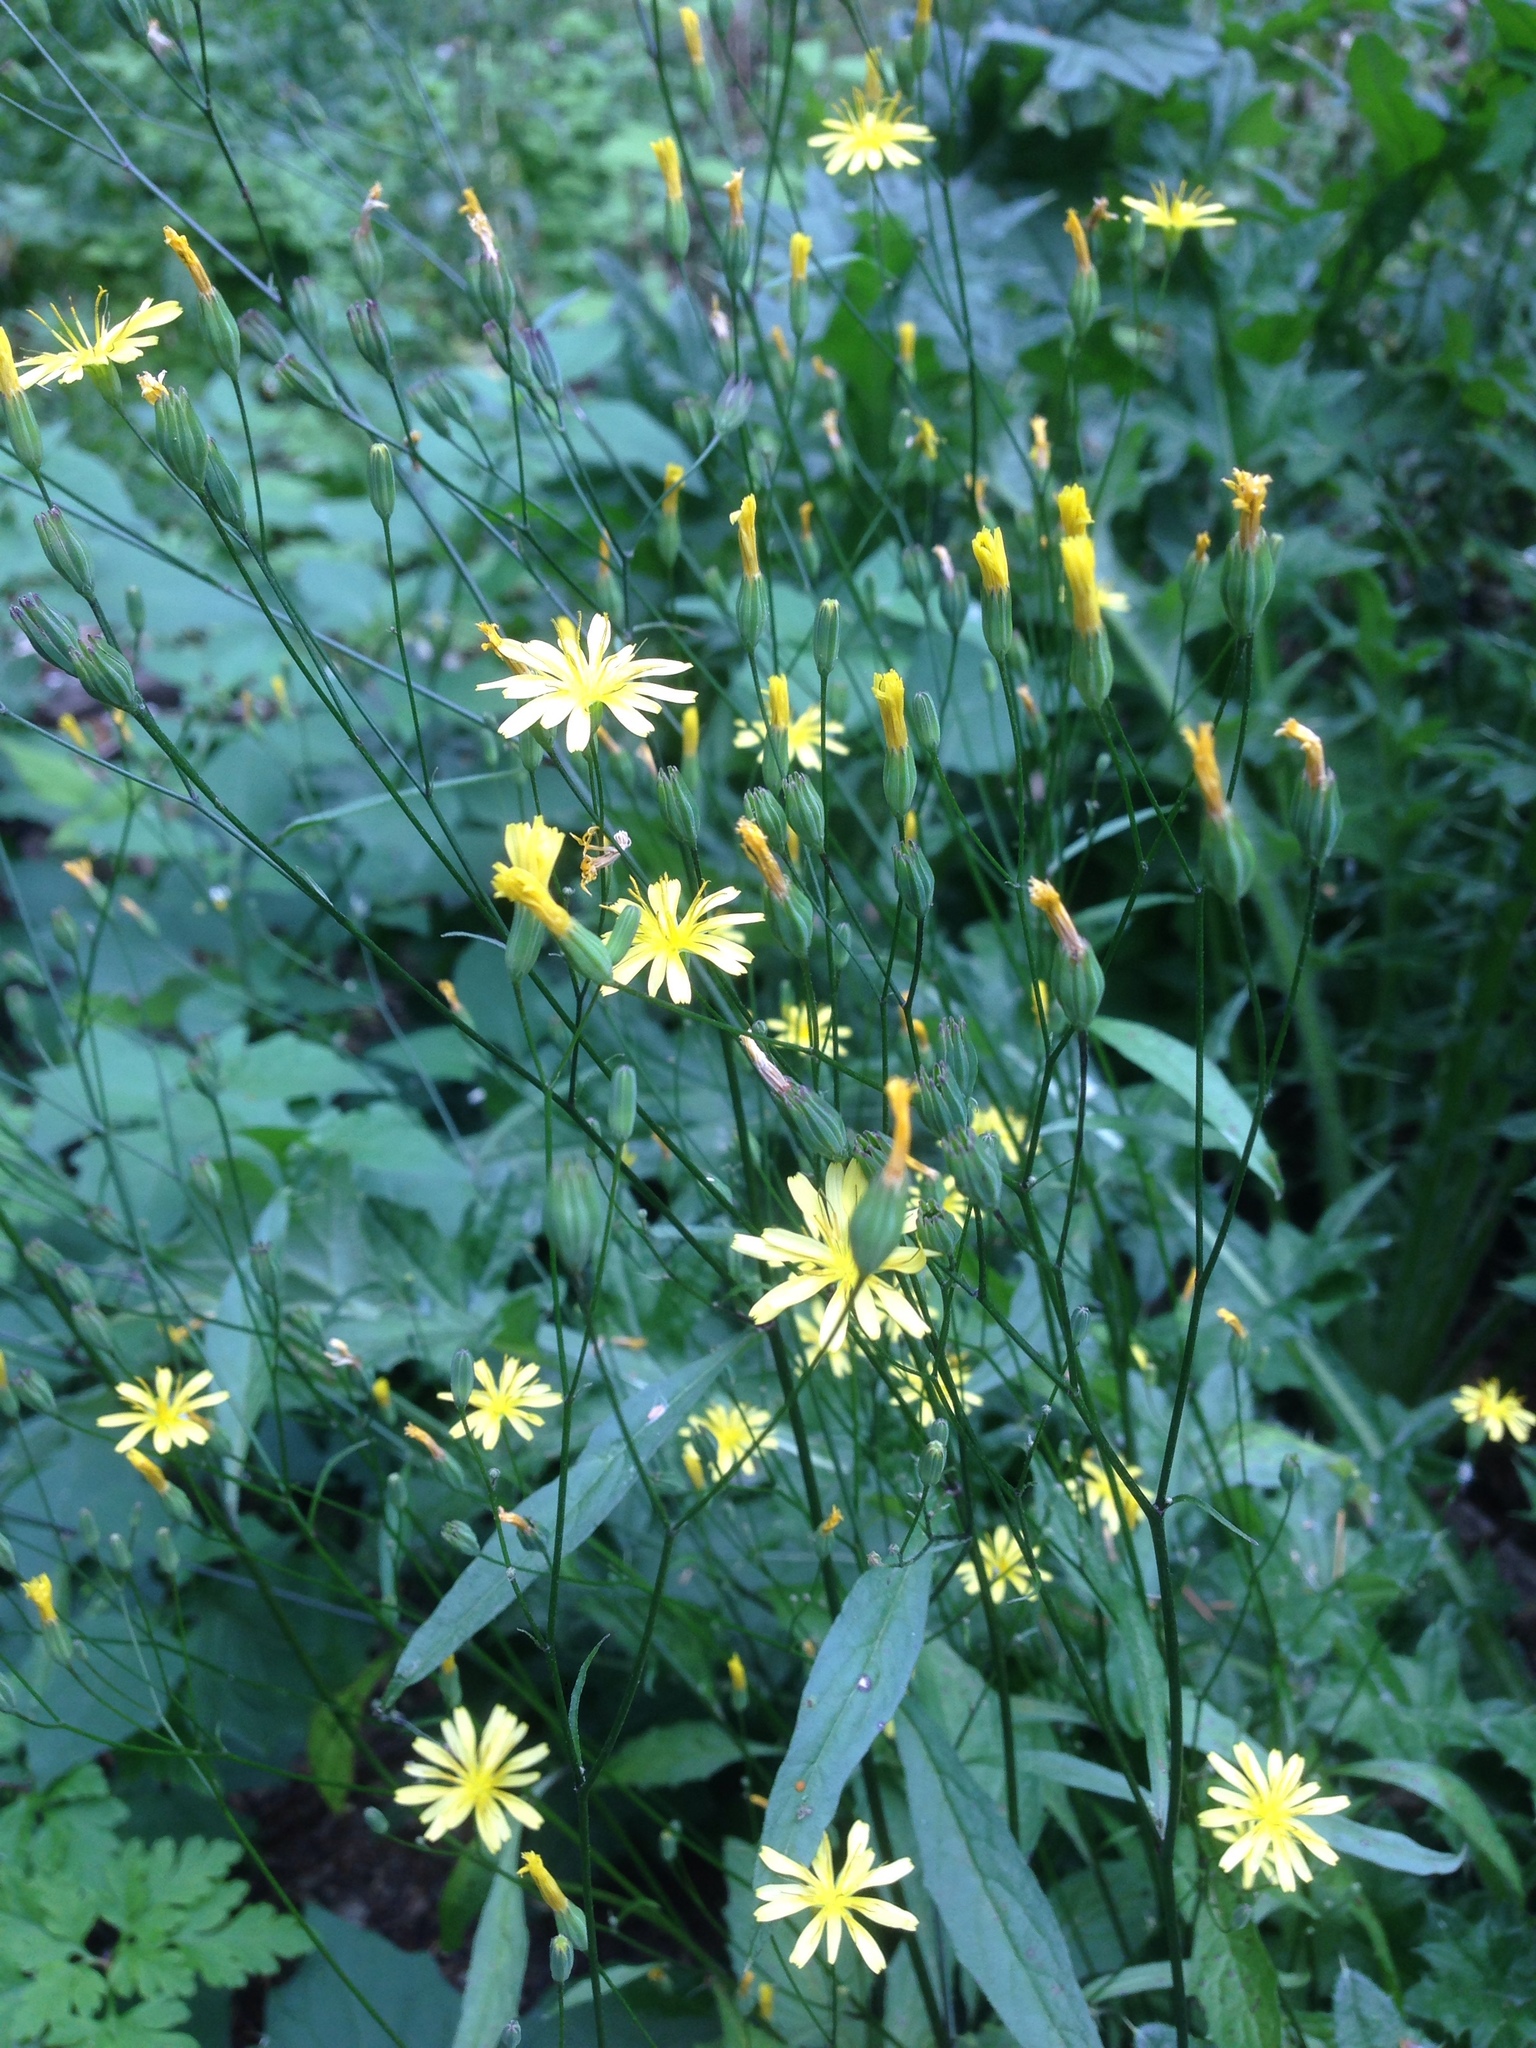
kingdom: Plantae
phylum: Tracheophyta
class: Magnoliopsida
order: Asterales
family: Asteraceae
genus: Lapsana
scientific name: Lapsana communis
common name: Nipplewort
